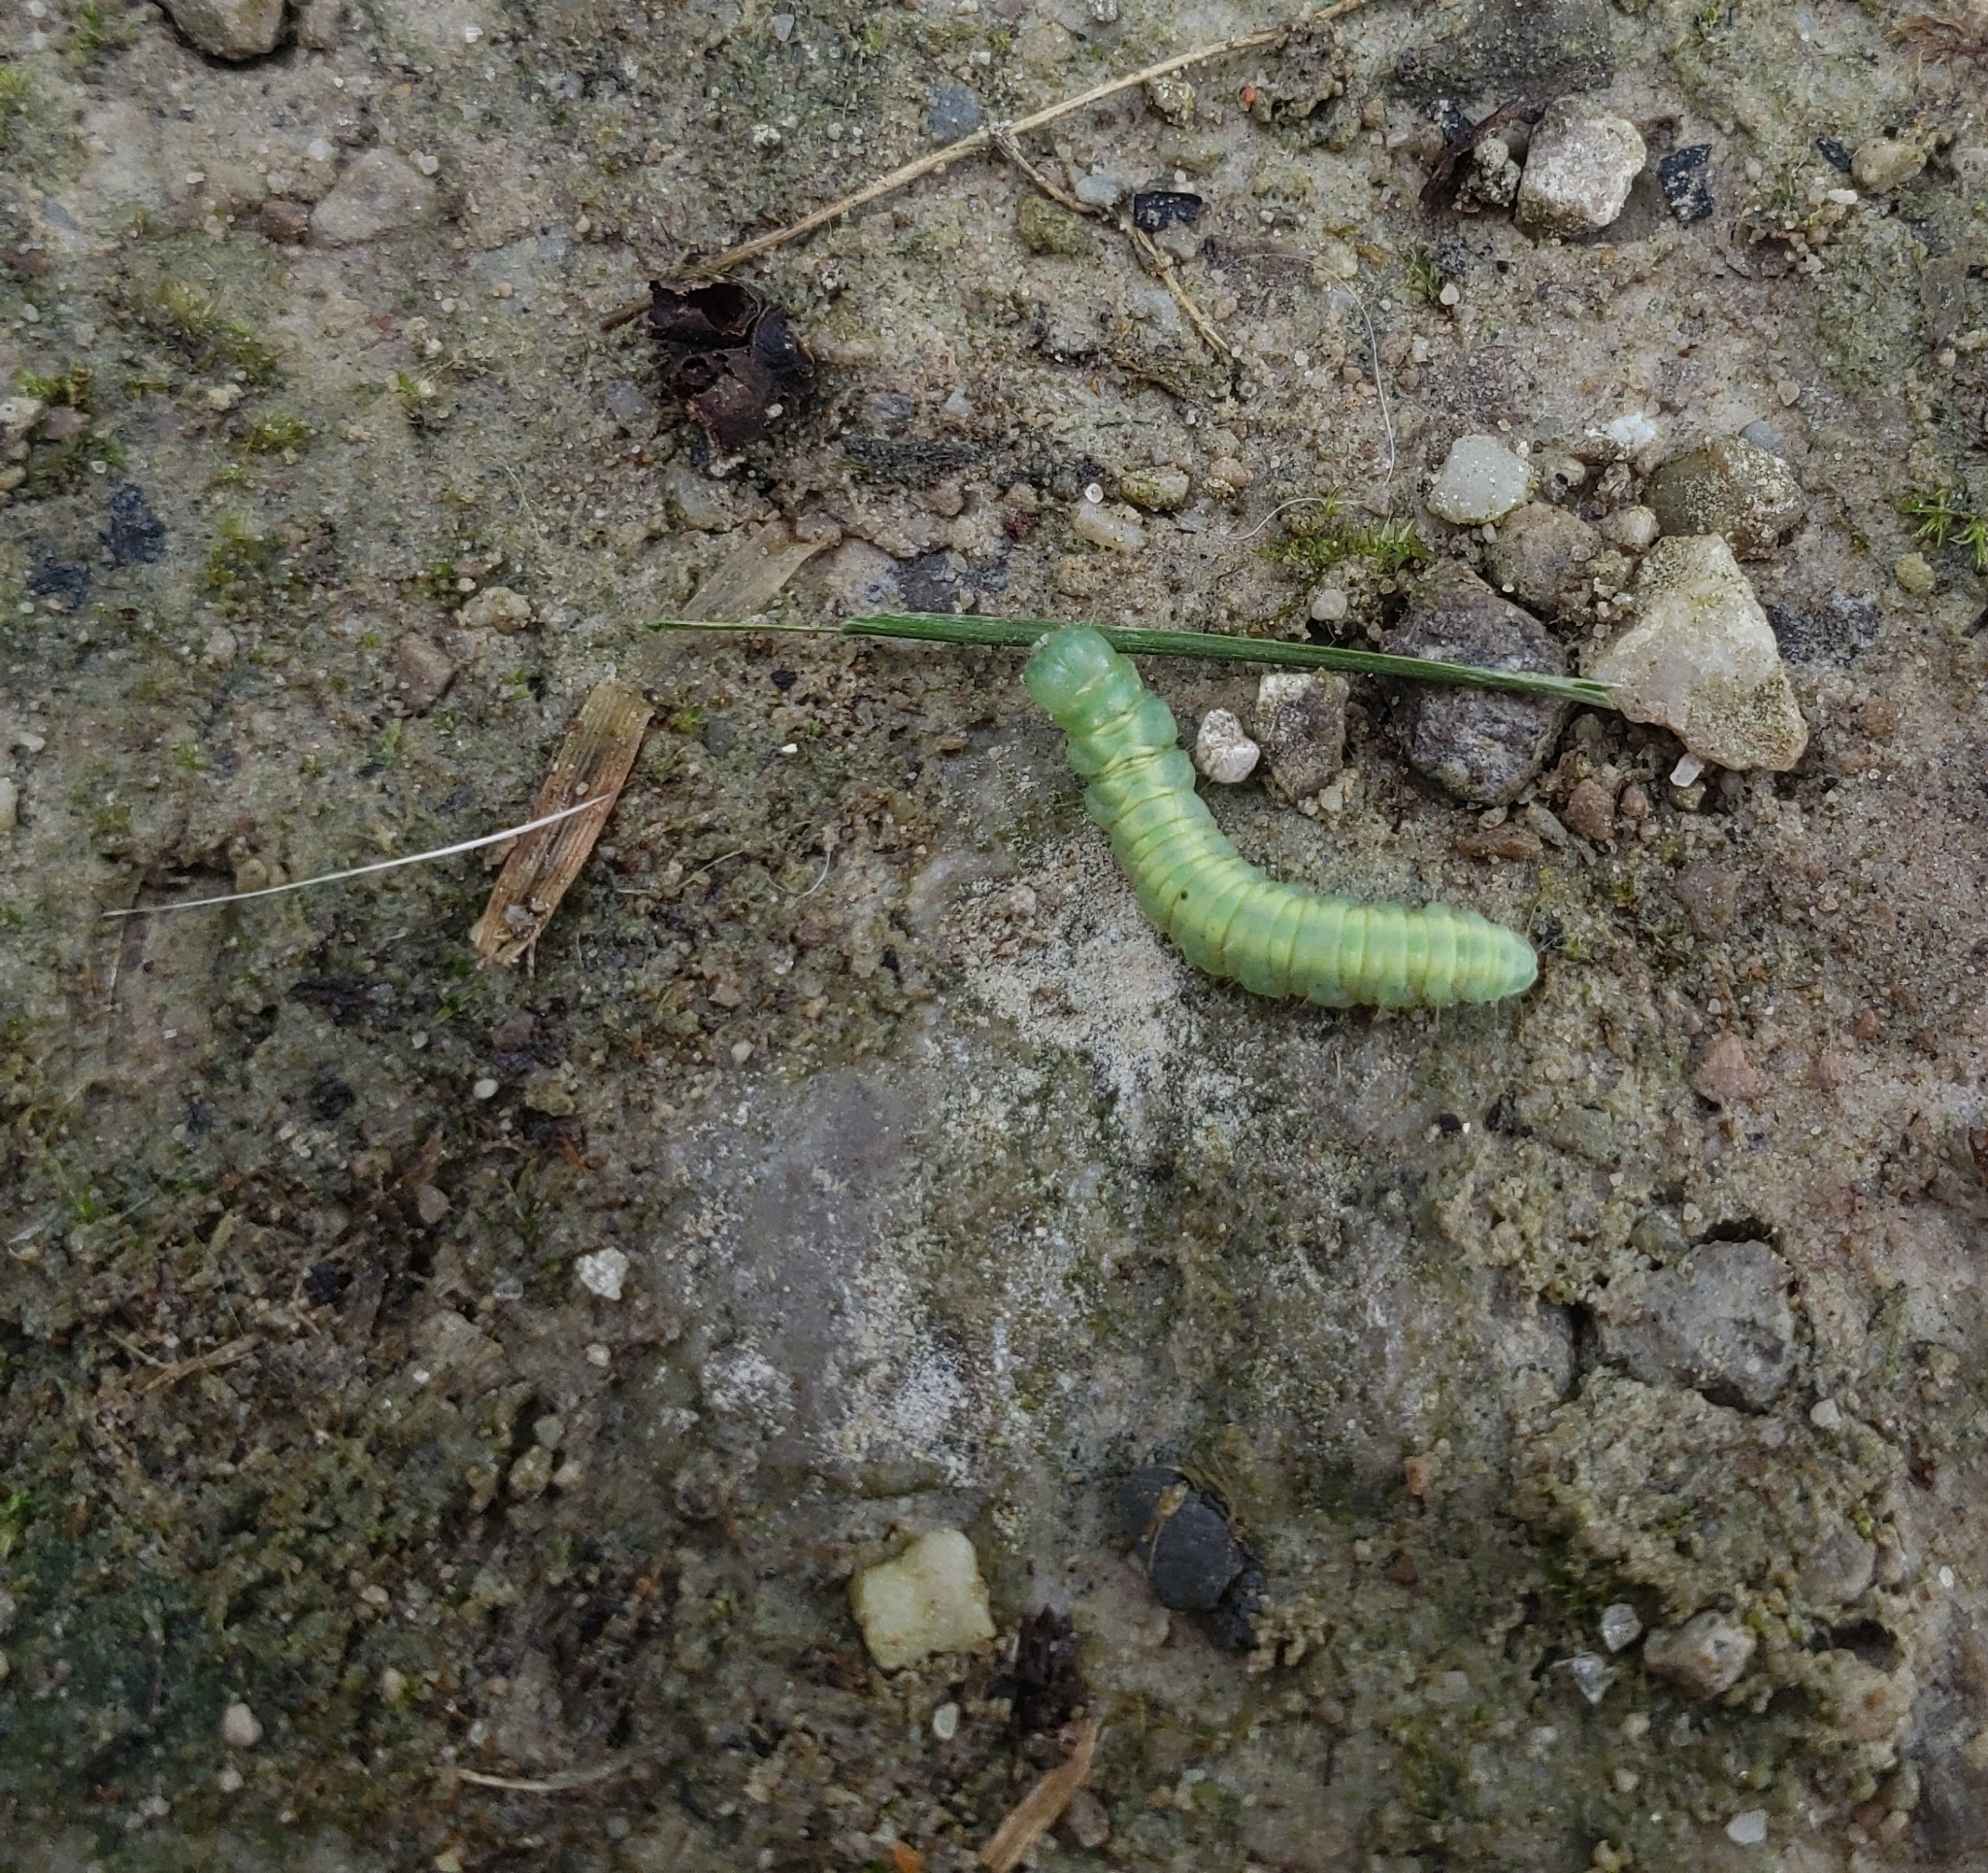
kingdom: Animalia
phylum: Arthropoda
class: Insecta
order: Lepidoptera
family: Peleopodidae
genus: Machimia
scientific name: Machimia tentoriferella
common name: Gold-striped leaftier moth
